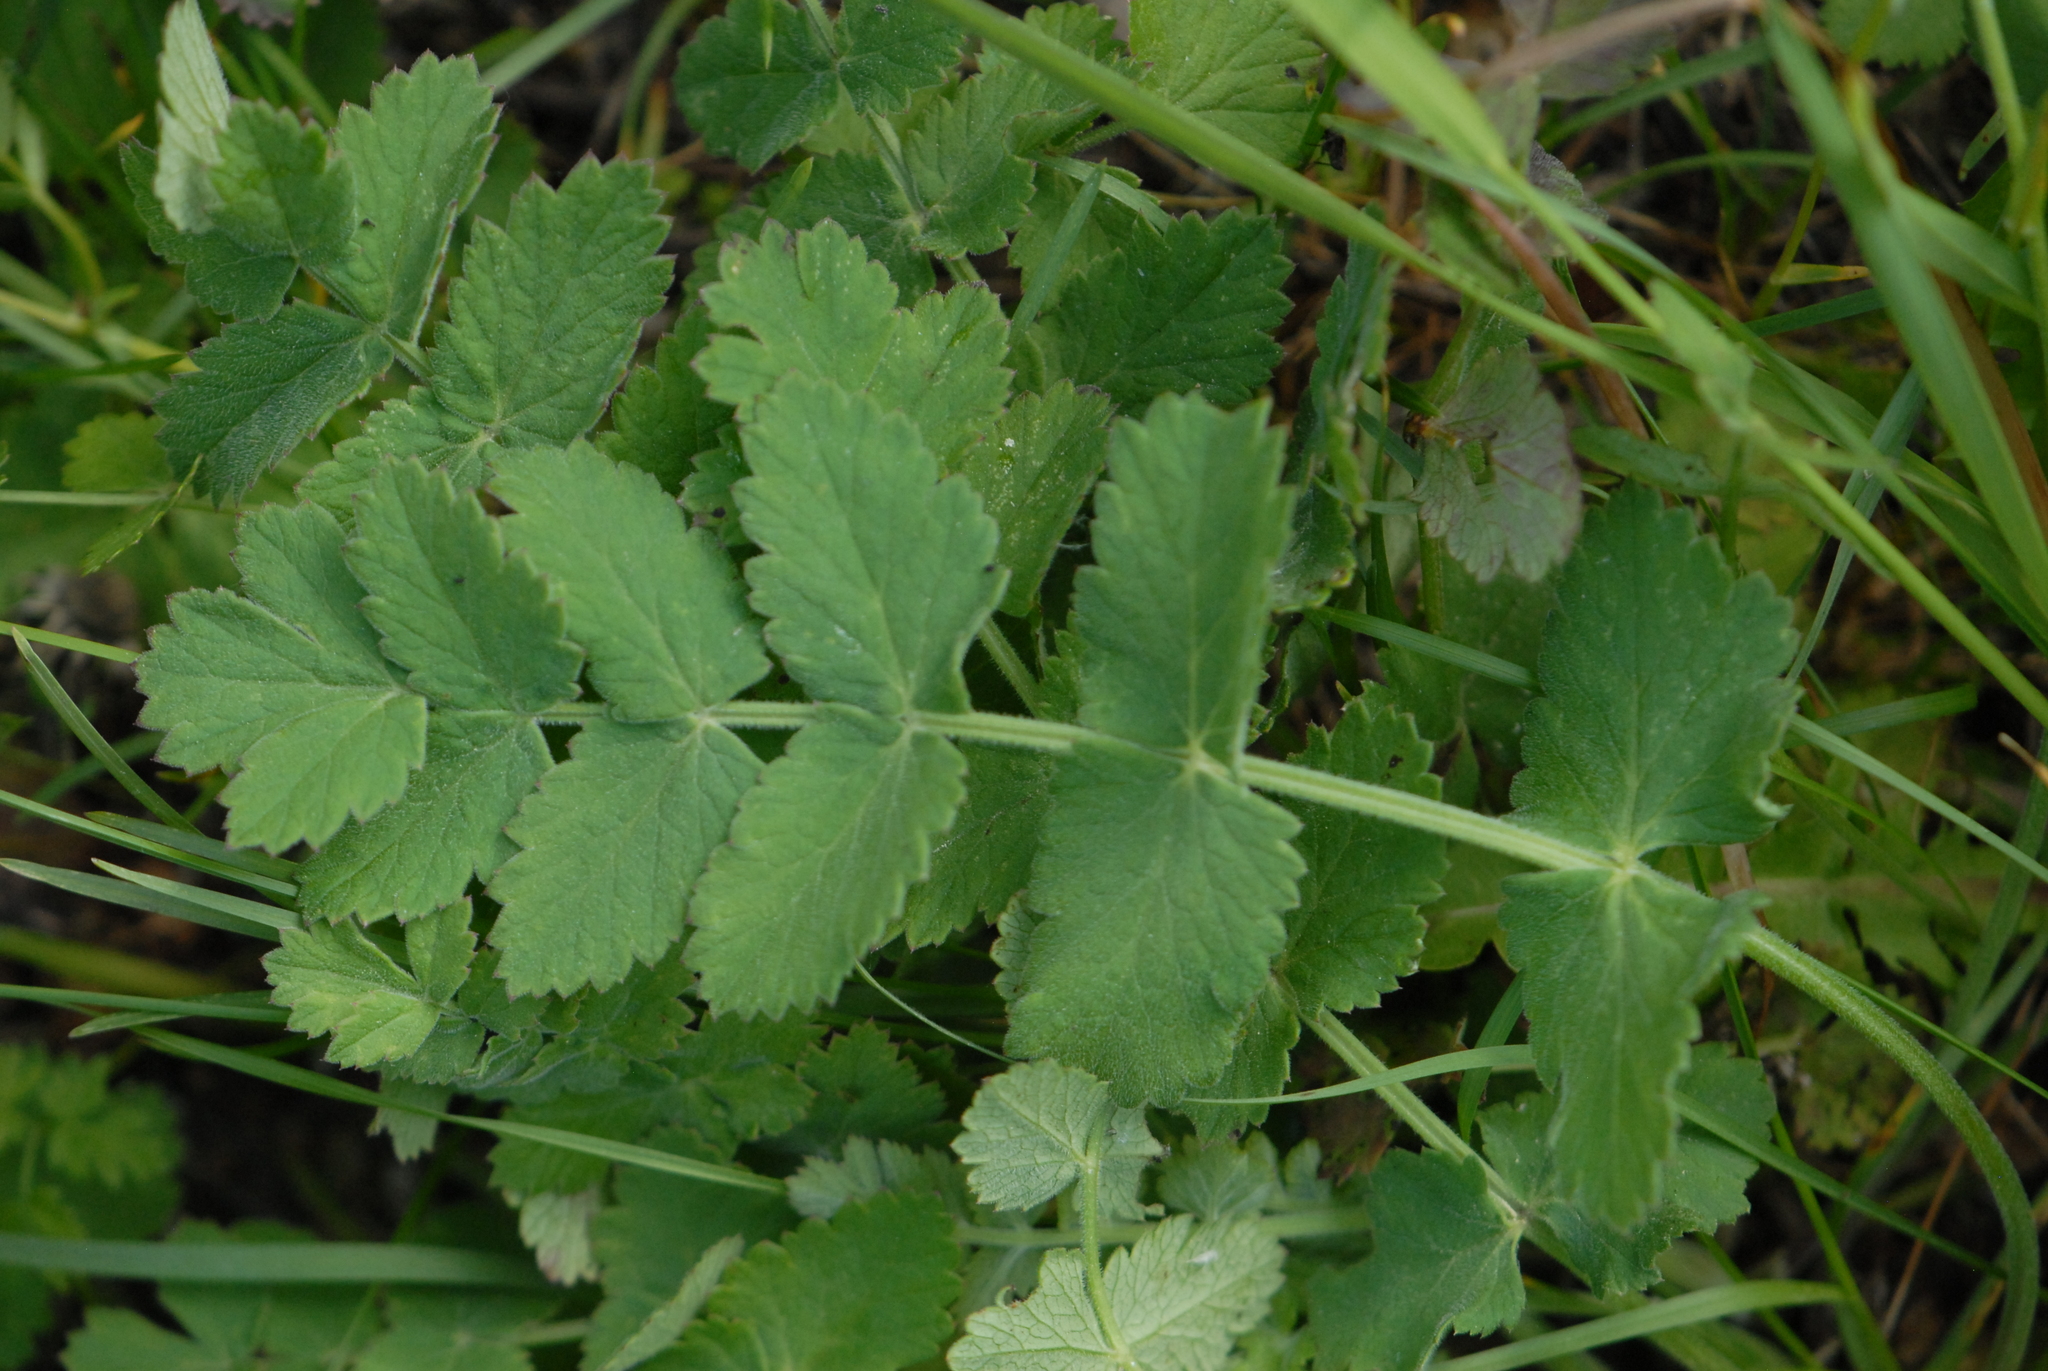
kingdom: Plantae
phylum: Tracheophyta
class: Magnoliopsida
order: Apiales
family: Apiaceae
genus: Pimpinella
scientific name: Pimpinella saxifraga
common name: Burnet-saxifrage
